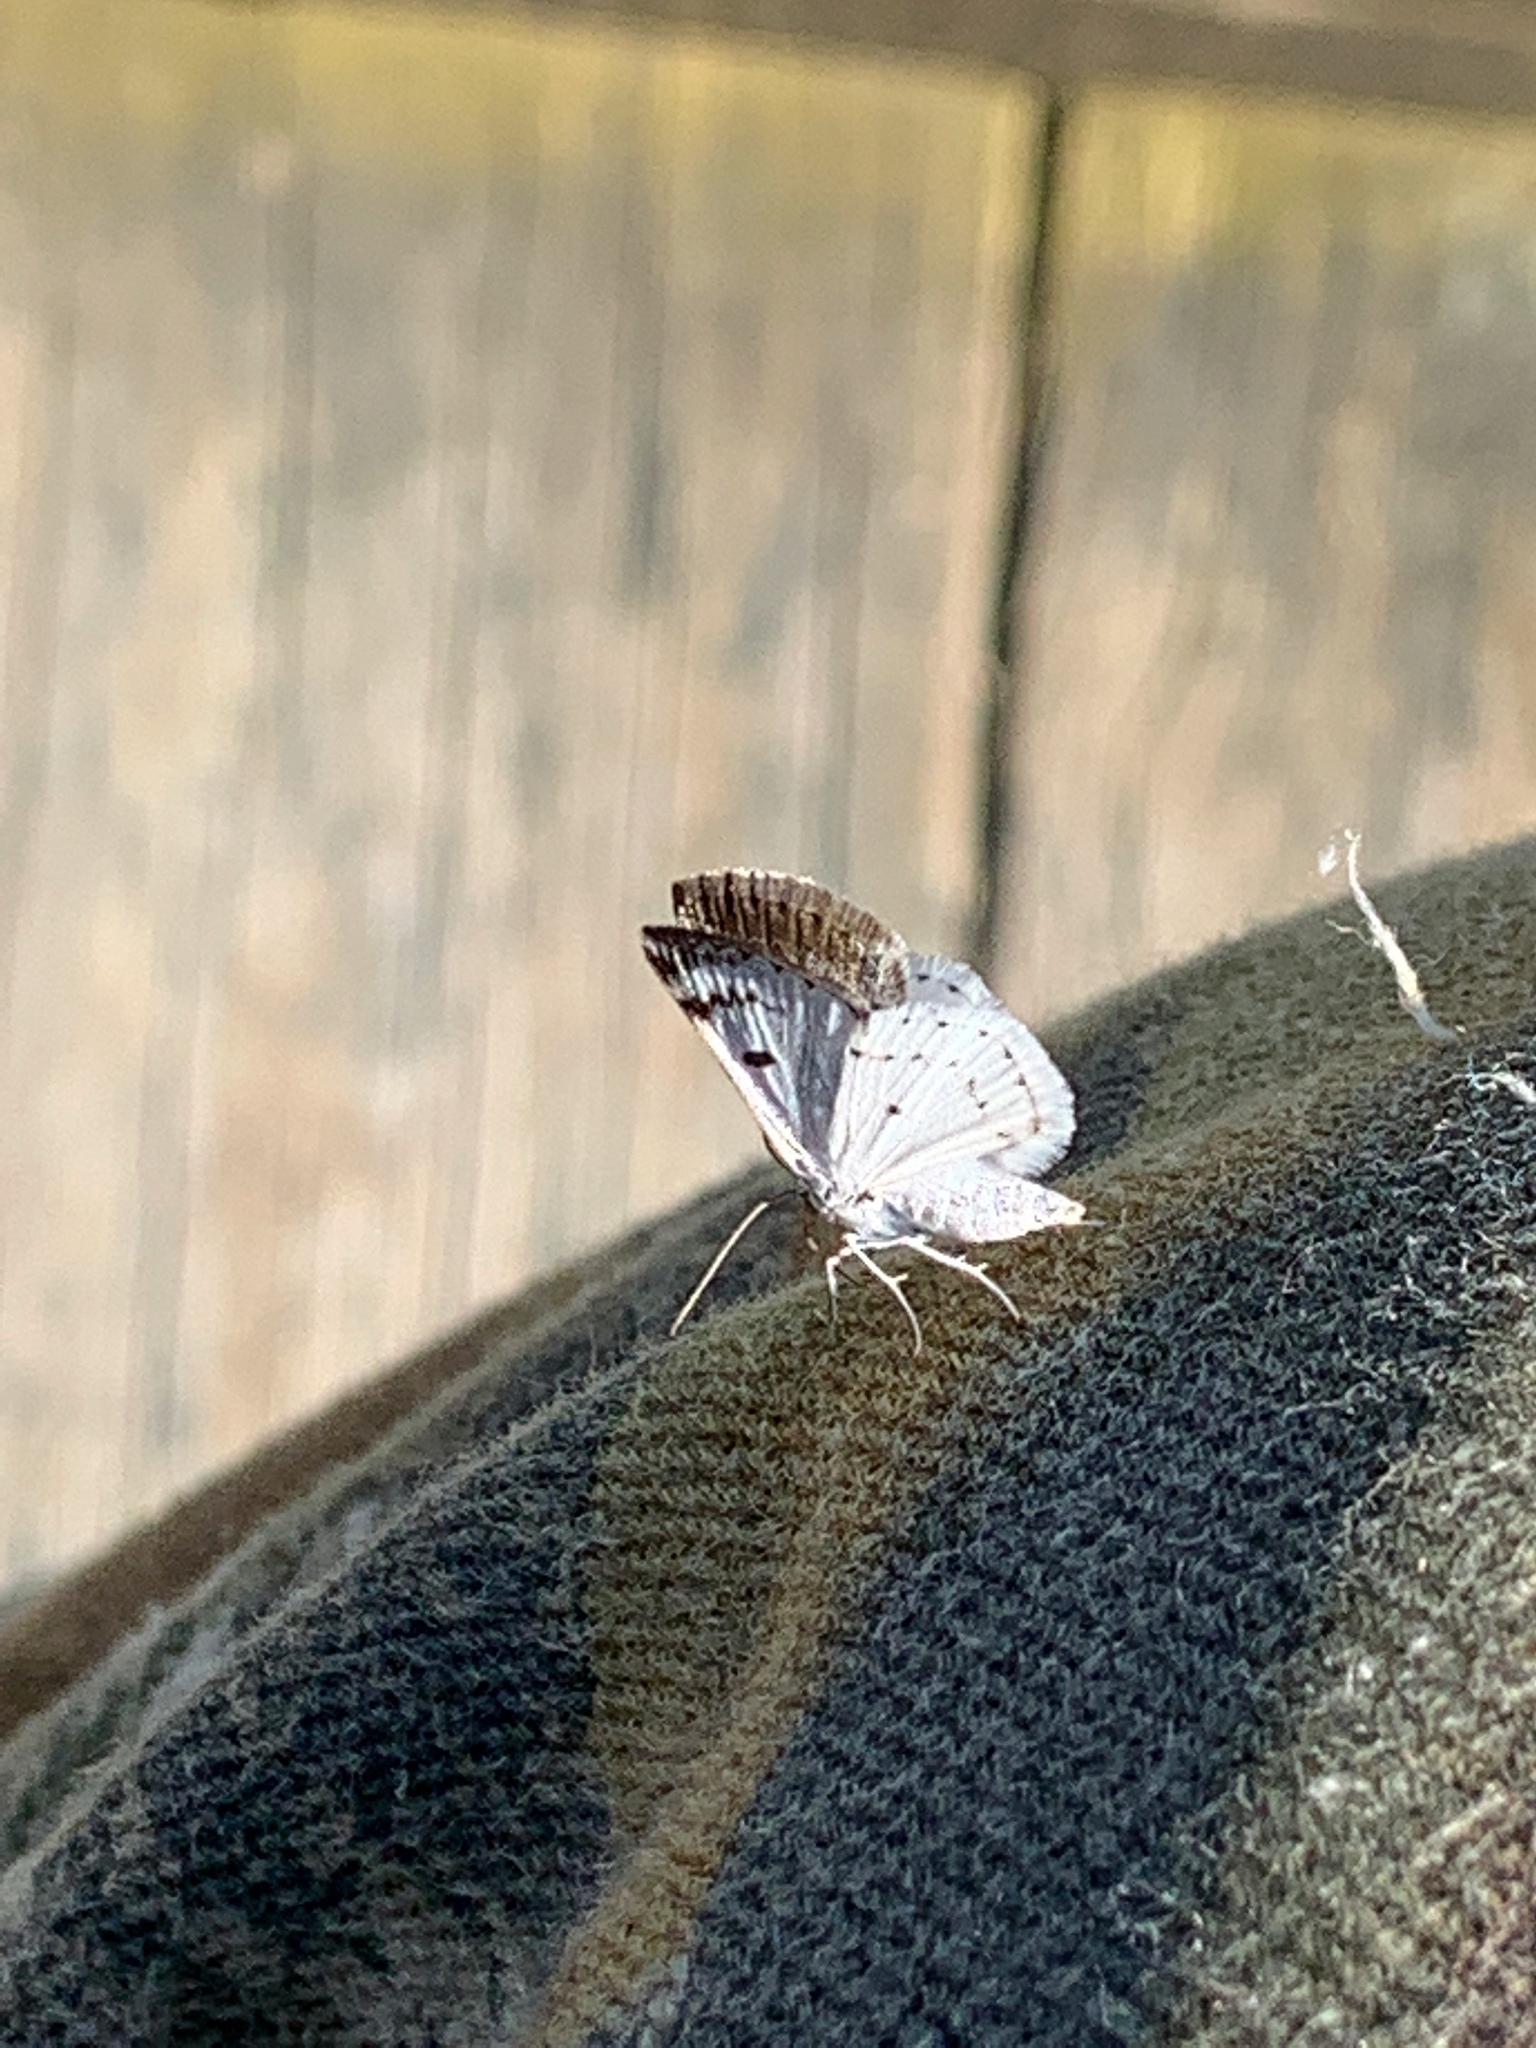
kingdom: Animalia
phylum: Arthropoda
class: Insecta
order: Lepidoptera
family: Geometridae
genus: Lomographa
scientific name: Lomographa semiclarata
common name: Bluish spring moth
